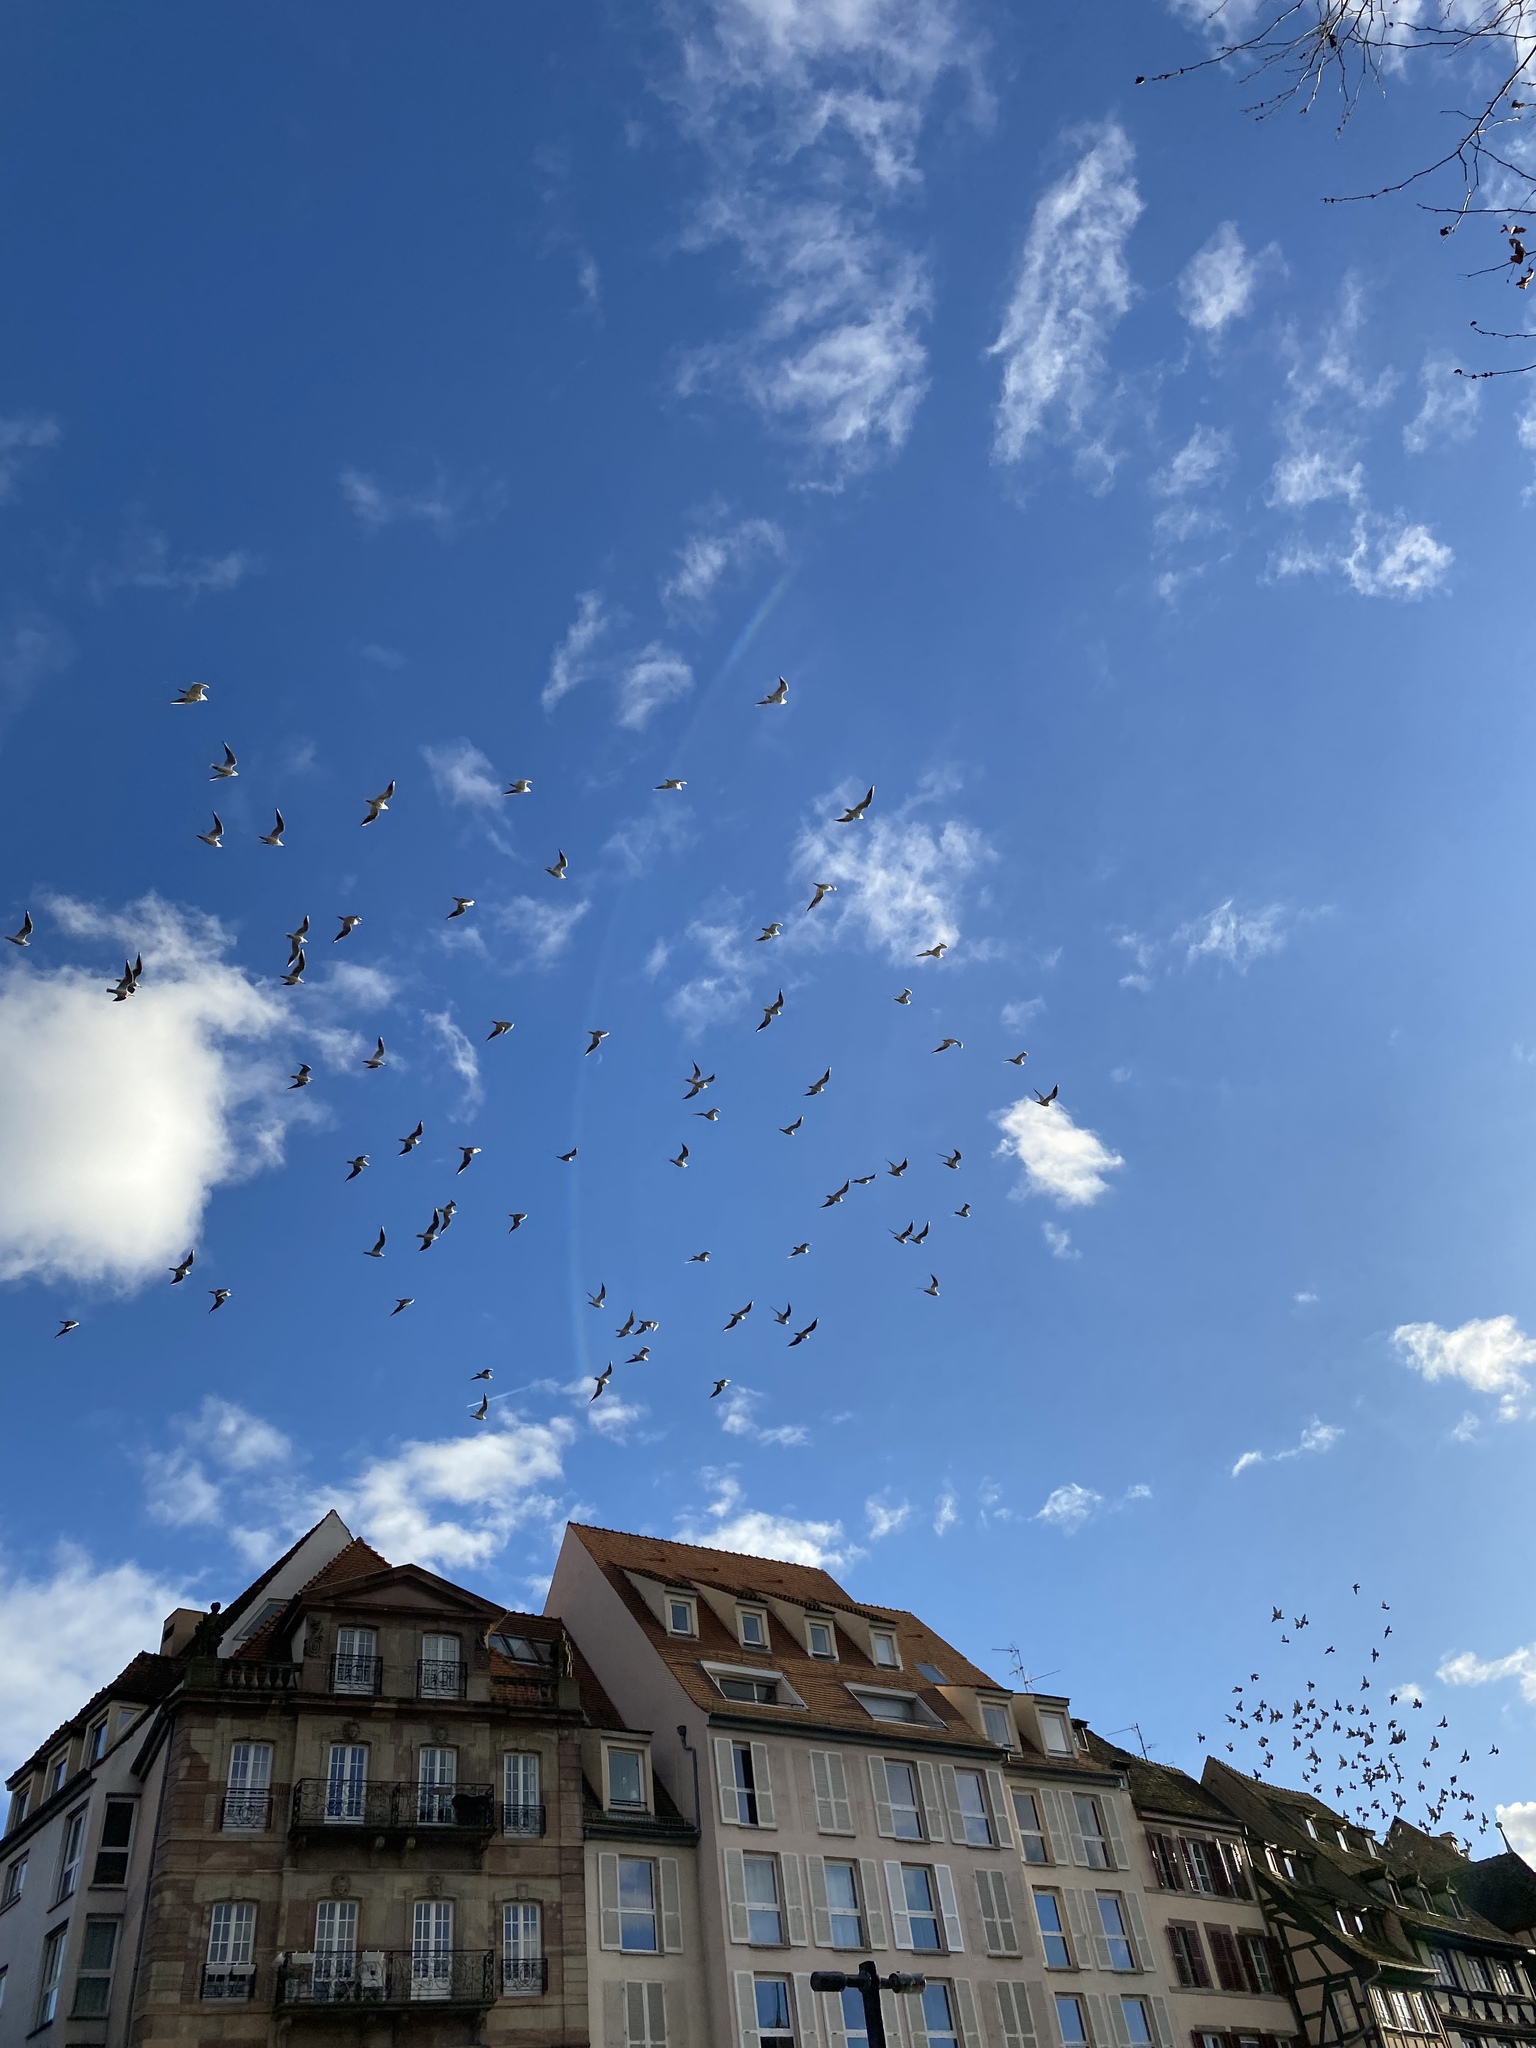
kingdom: Animalia
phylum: Chordata
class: Aves
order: Charadriiformes
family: Laridae
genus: Chroicocephalus
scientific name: Chroicocephalus ridibundus
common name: Black-headed gull
